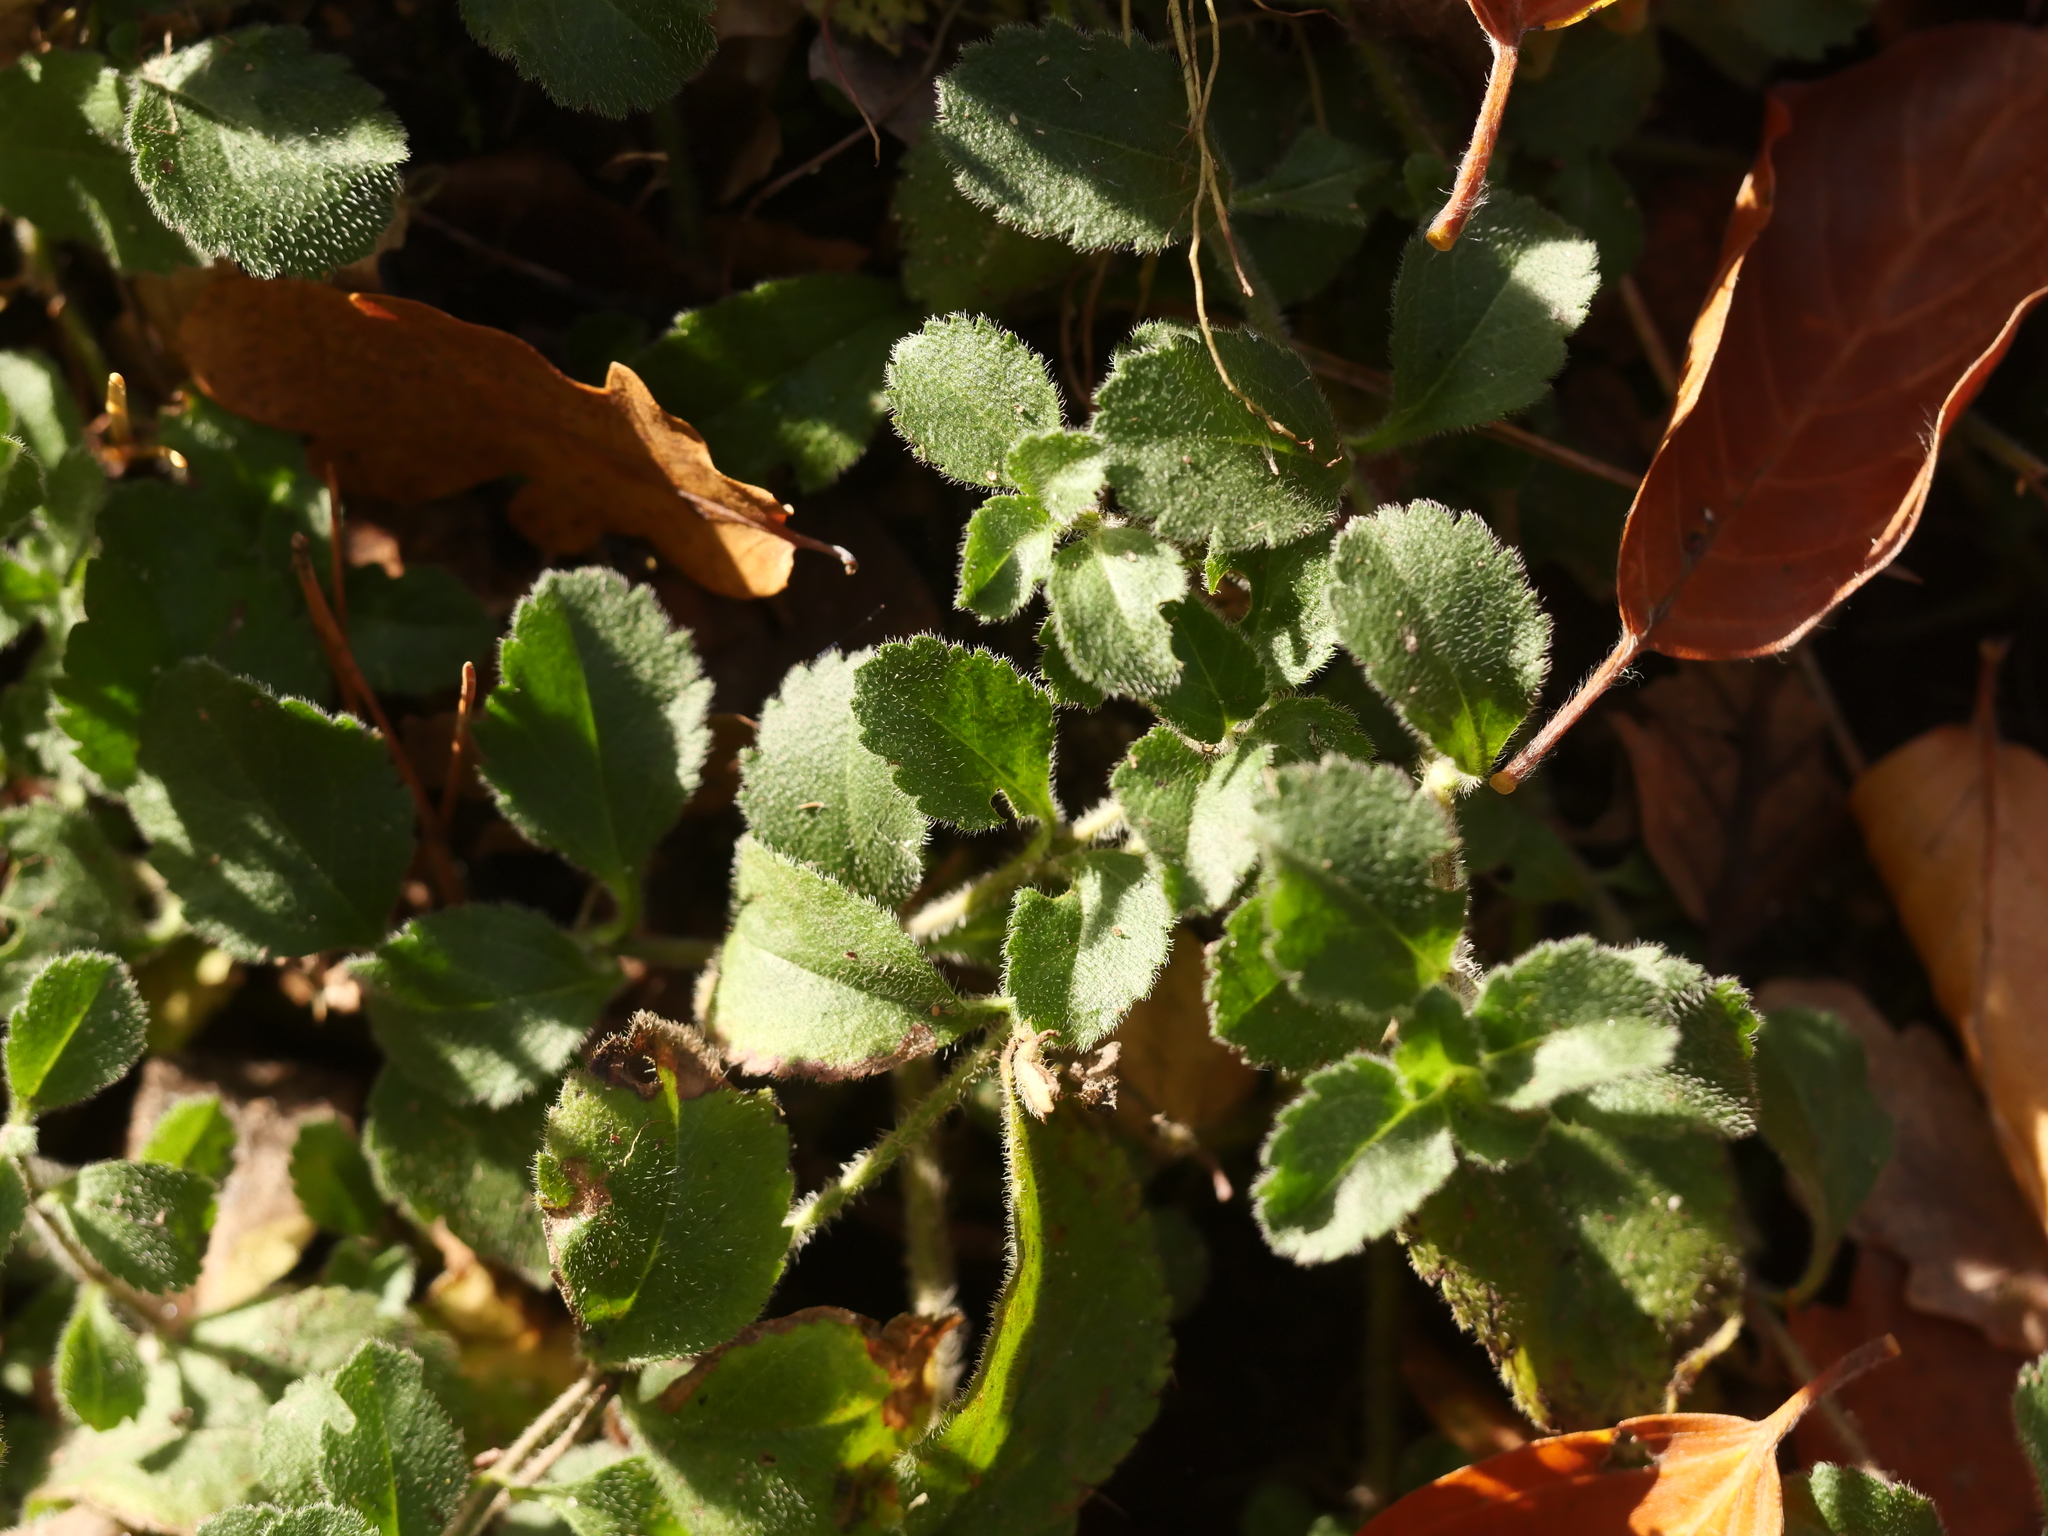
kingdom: Plantae
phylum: Tracheophyta
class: Magnoliopsida
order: Lamiales
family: Plantaginaceae
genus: Veronica
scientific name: Veronica officinalis
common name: Common speedwell
